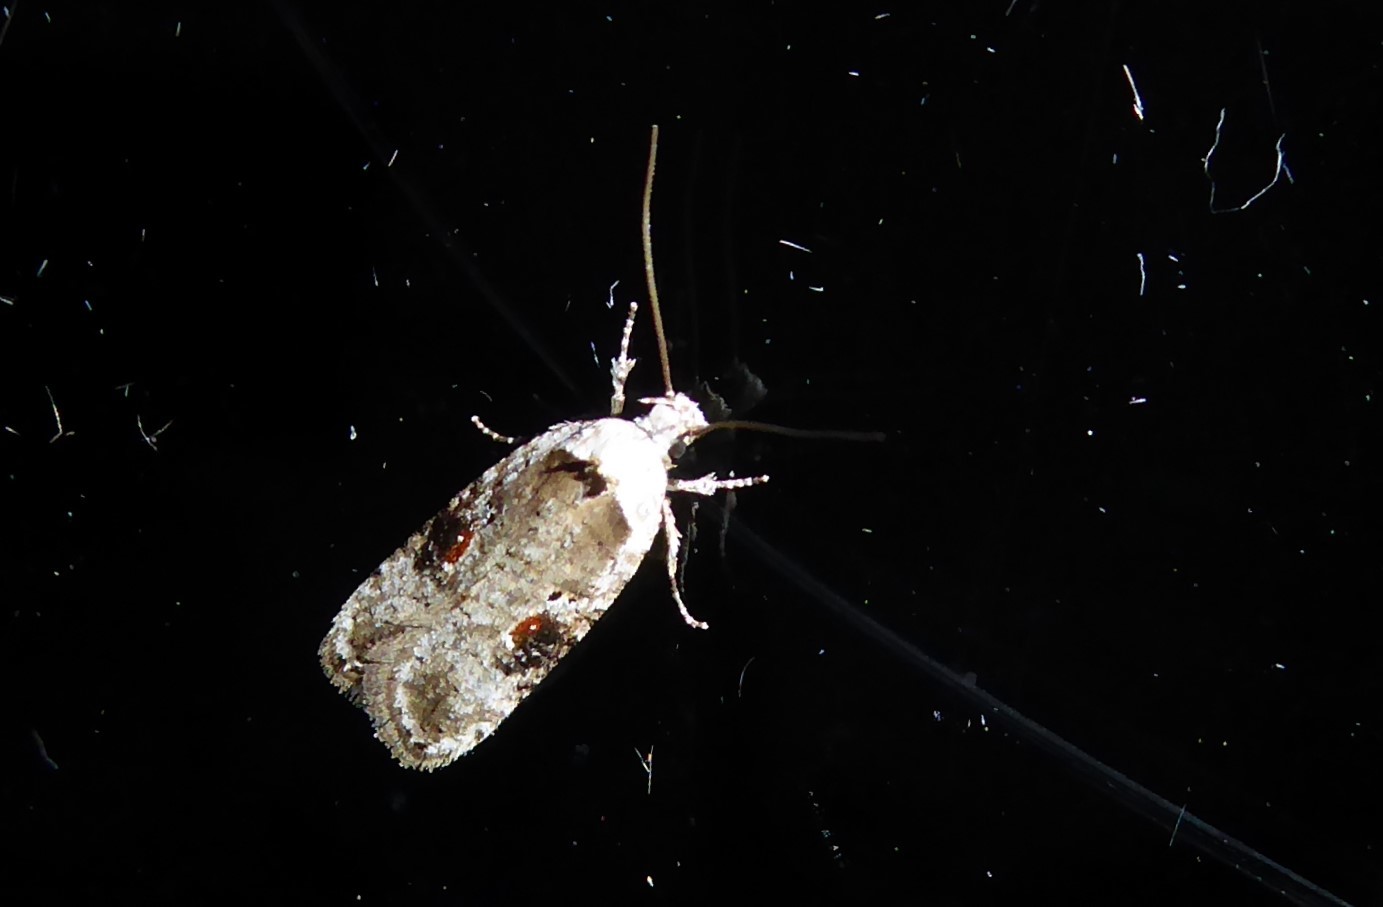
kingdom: Animalia
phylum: Arthropoda
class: Insecta
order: Lepidoptera
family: Depressariidae
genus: Agonopterix
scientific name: Agonopterix alstroemeriana
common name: Moth
